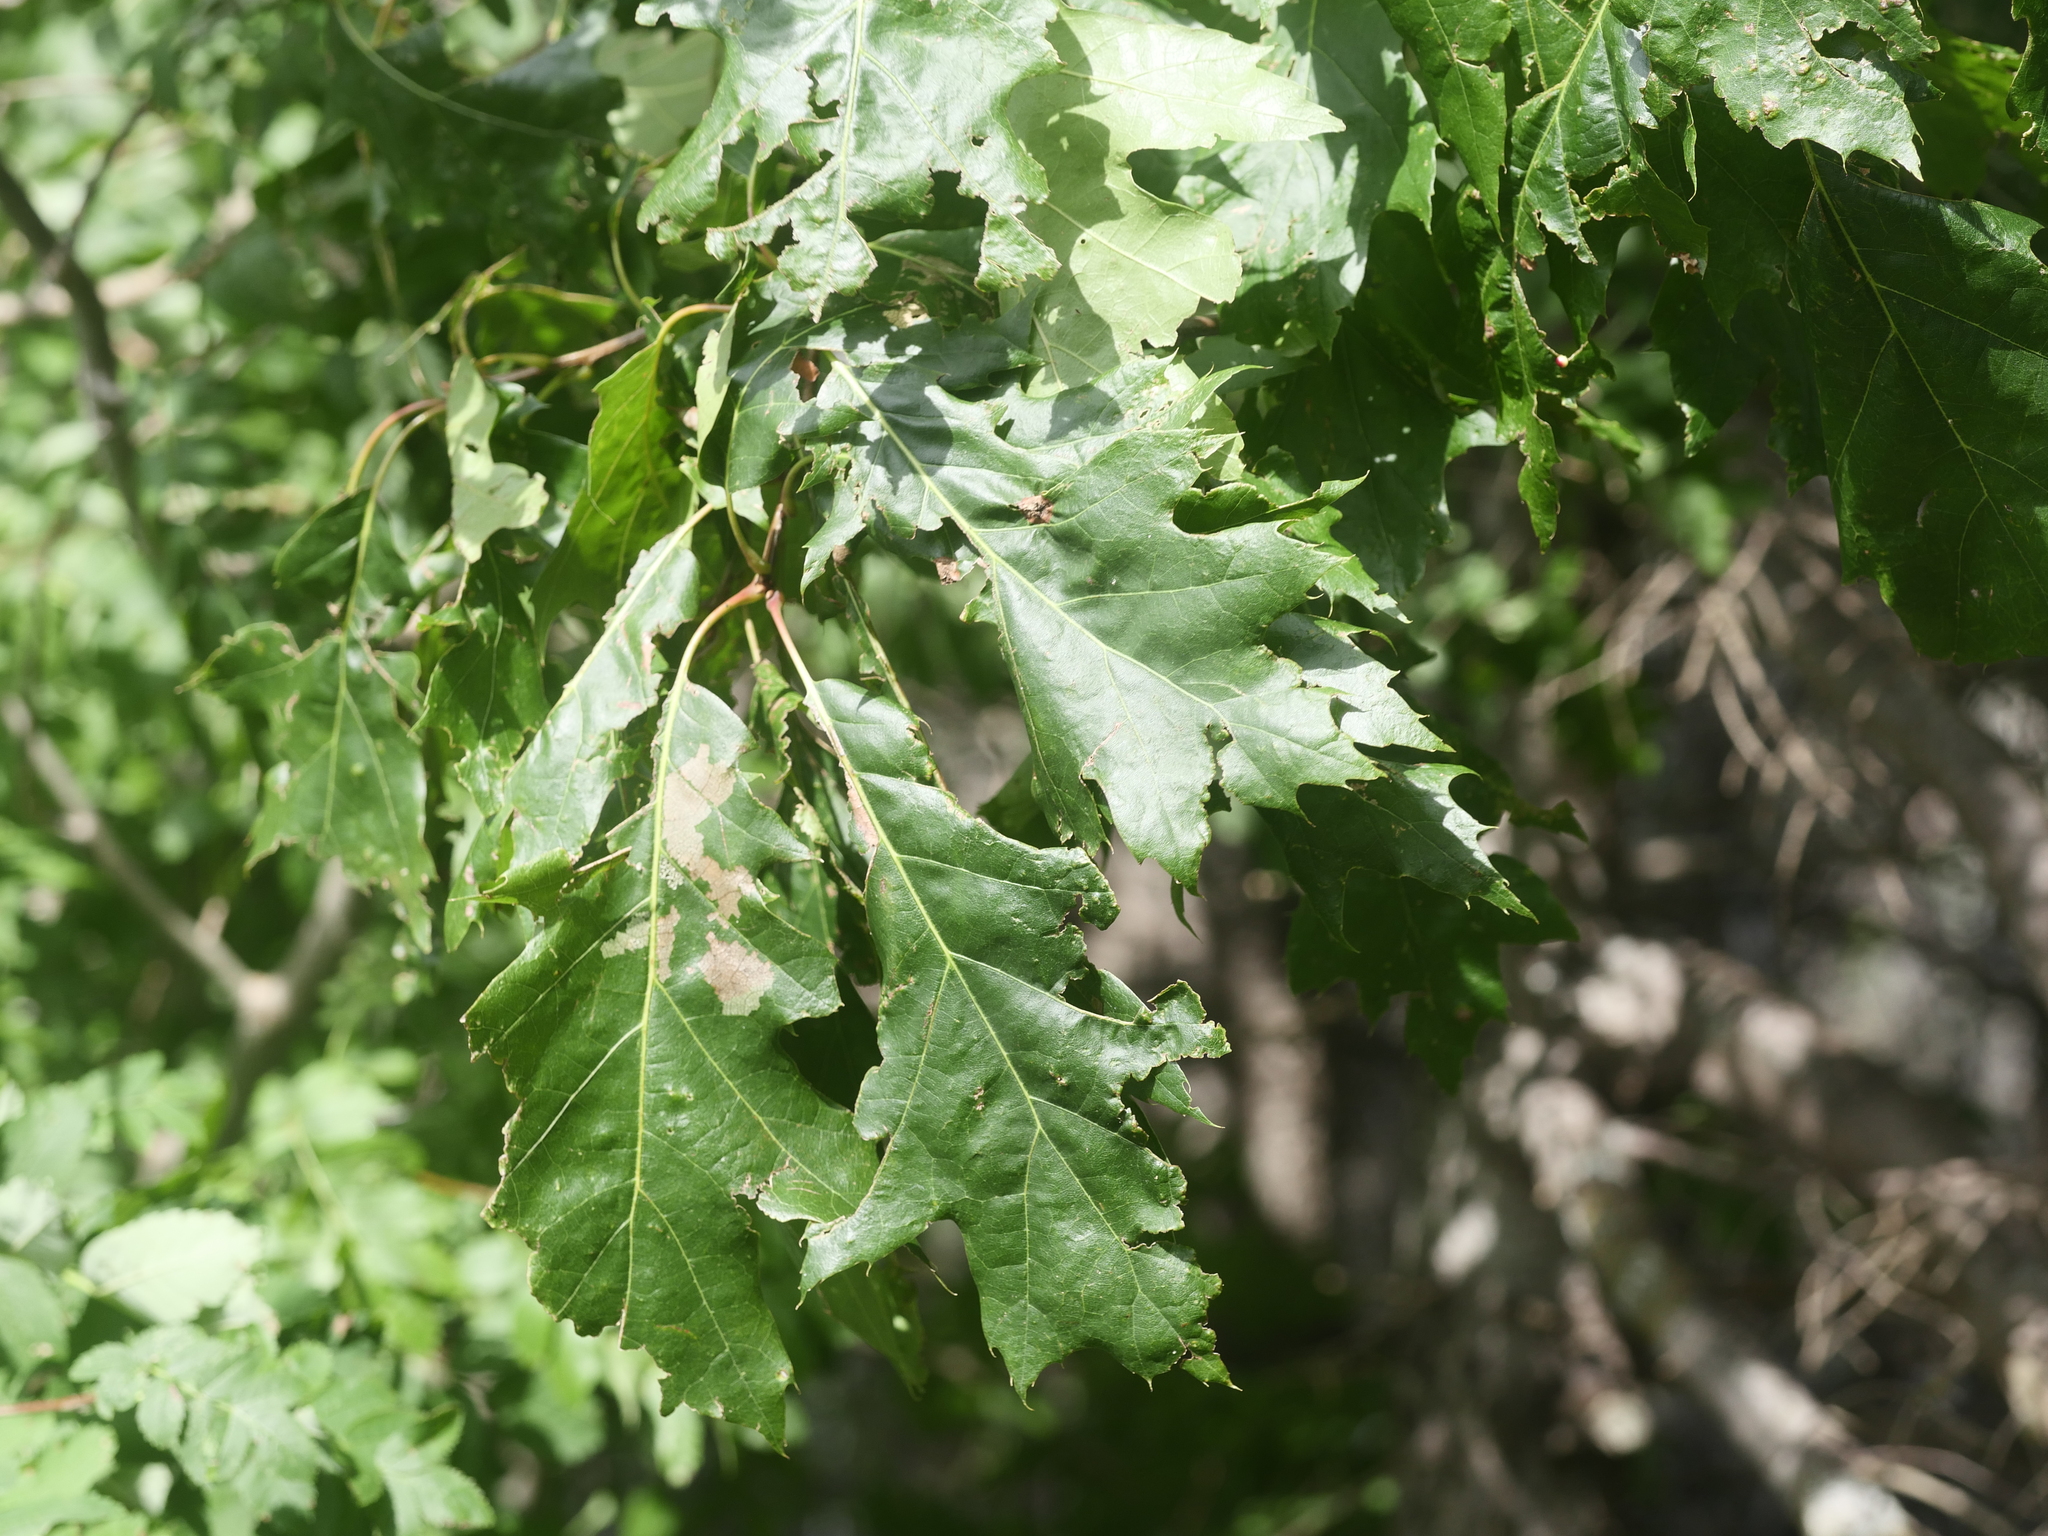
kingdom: Plantae
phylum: Tracheophyta
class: Magnoliopsida
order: Fagales
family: Fagaceae
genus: Quercus
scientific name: Quercus rubra
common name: Red oak
